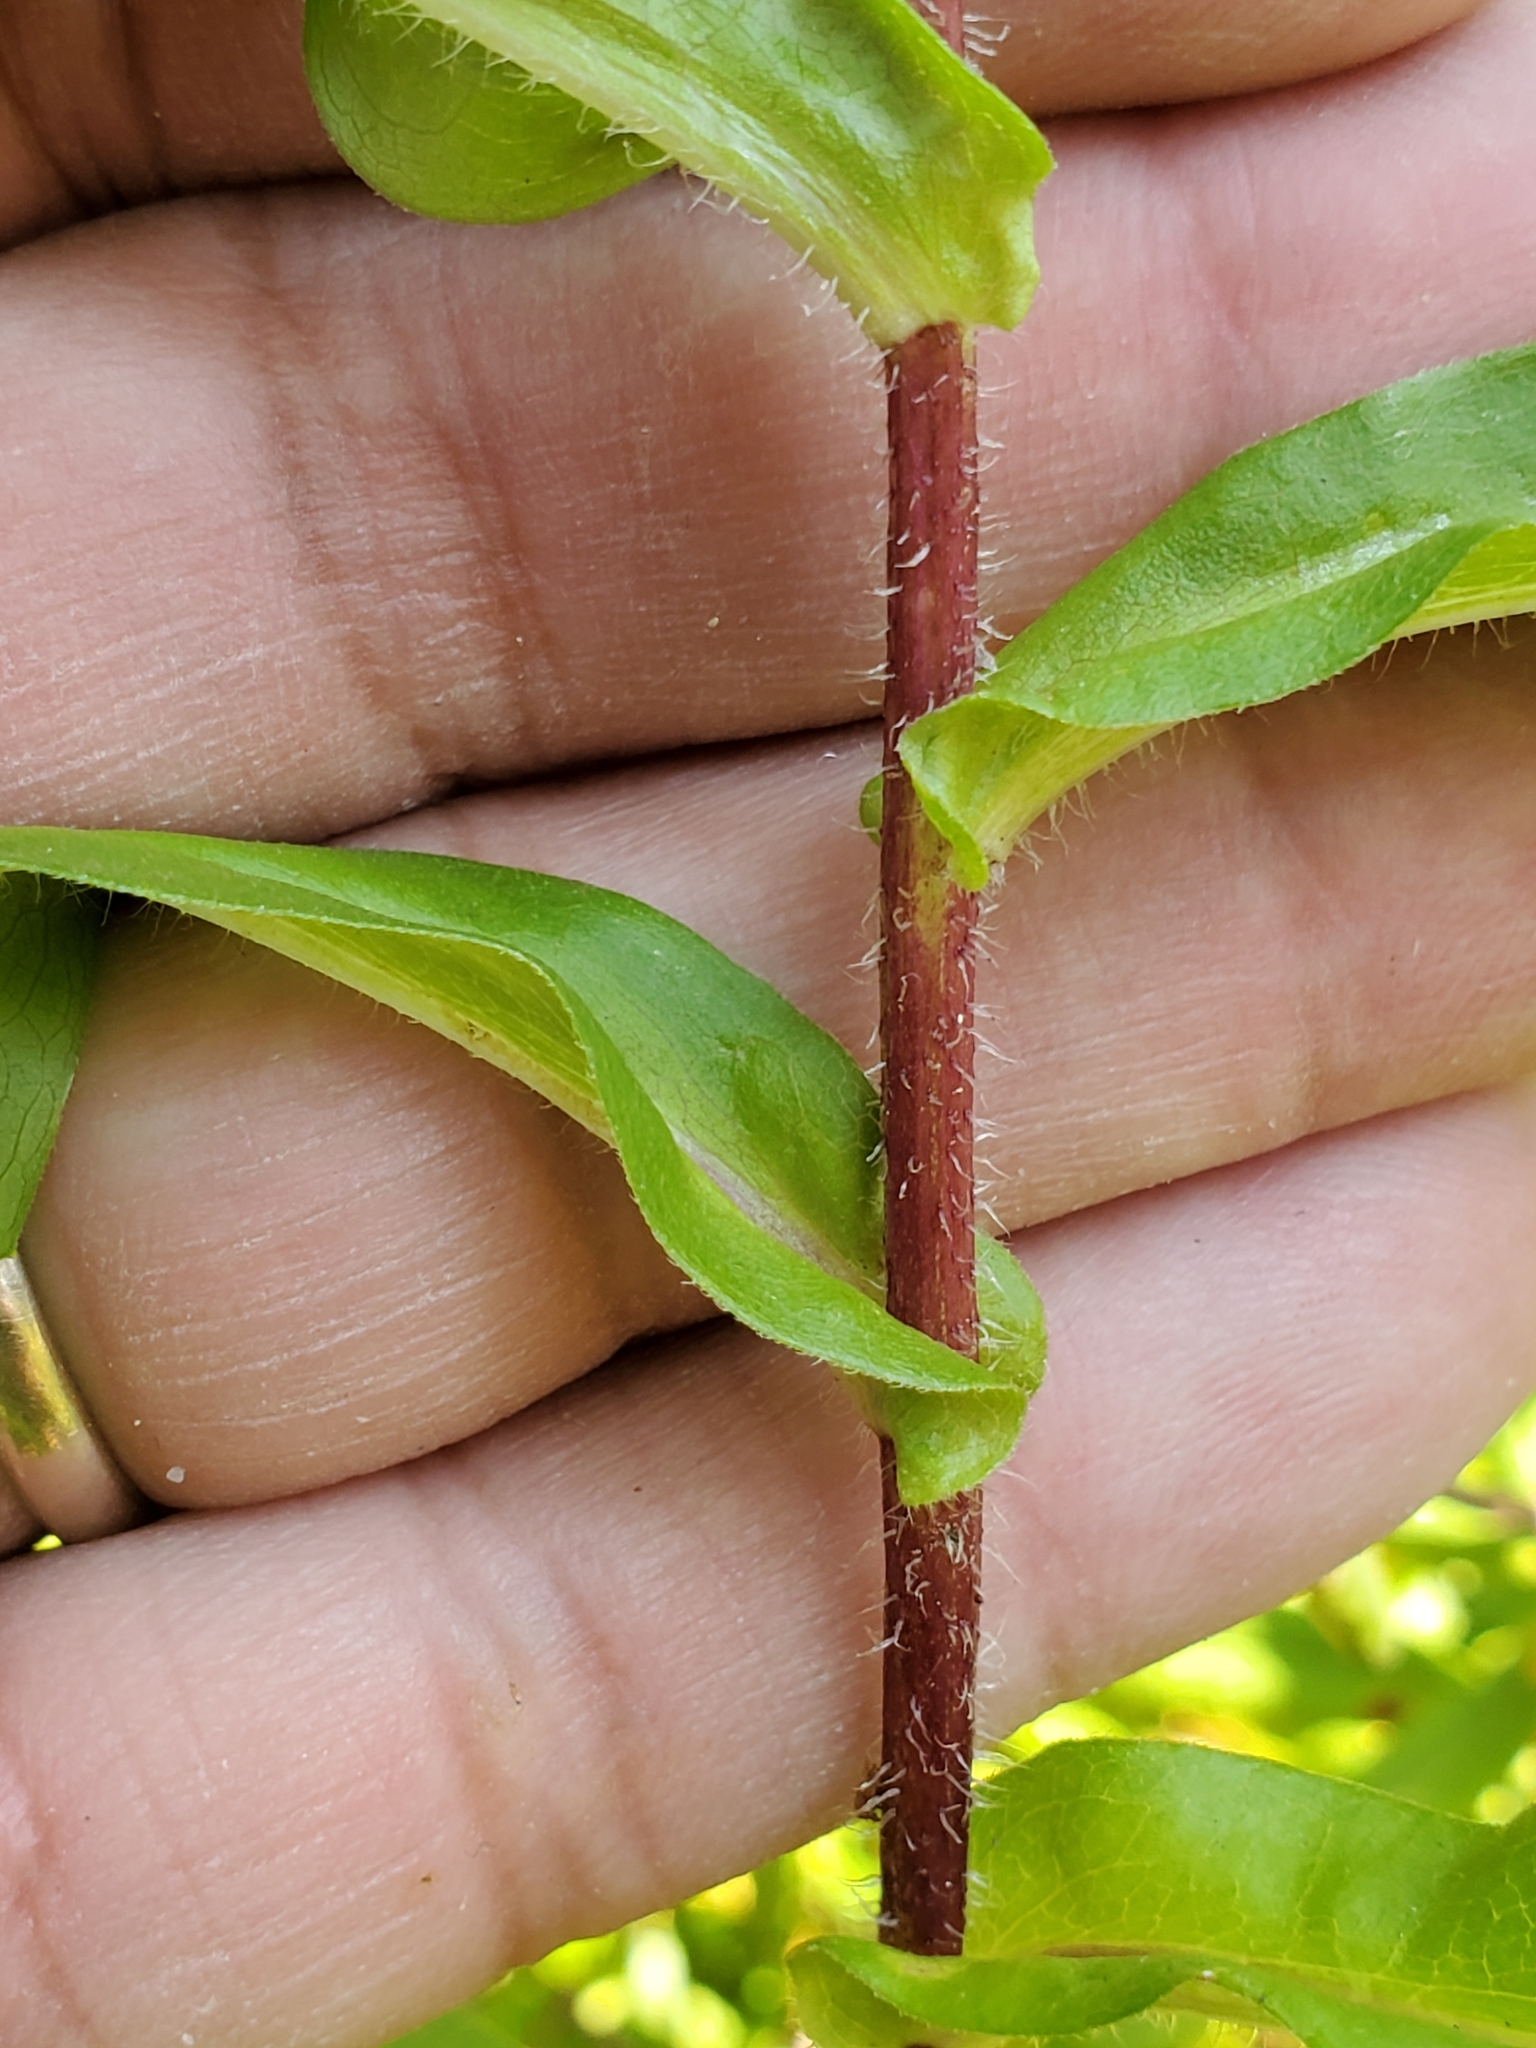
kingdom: Plantae
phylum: Tracheophyta
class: Magnoliopsida
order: Asterales
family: Asteraceae
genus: Symphyotrichum
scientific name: Symphyotrichum puniceum
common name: Bog aster
